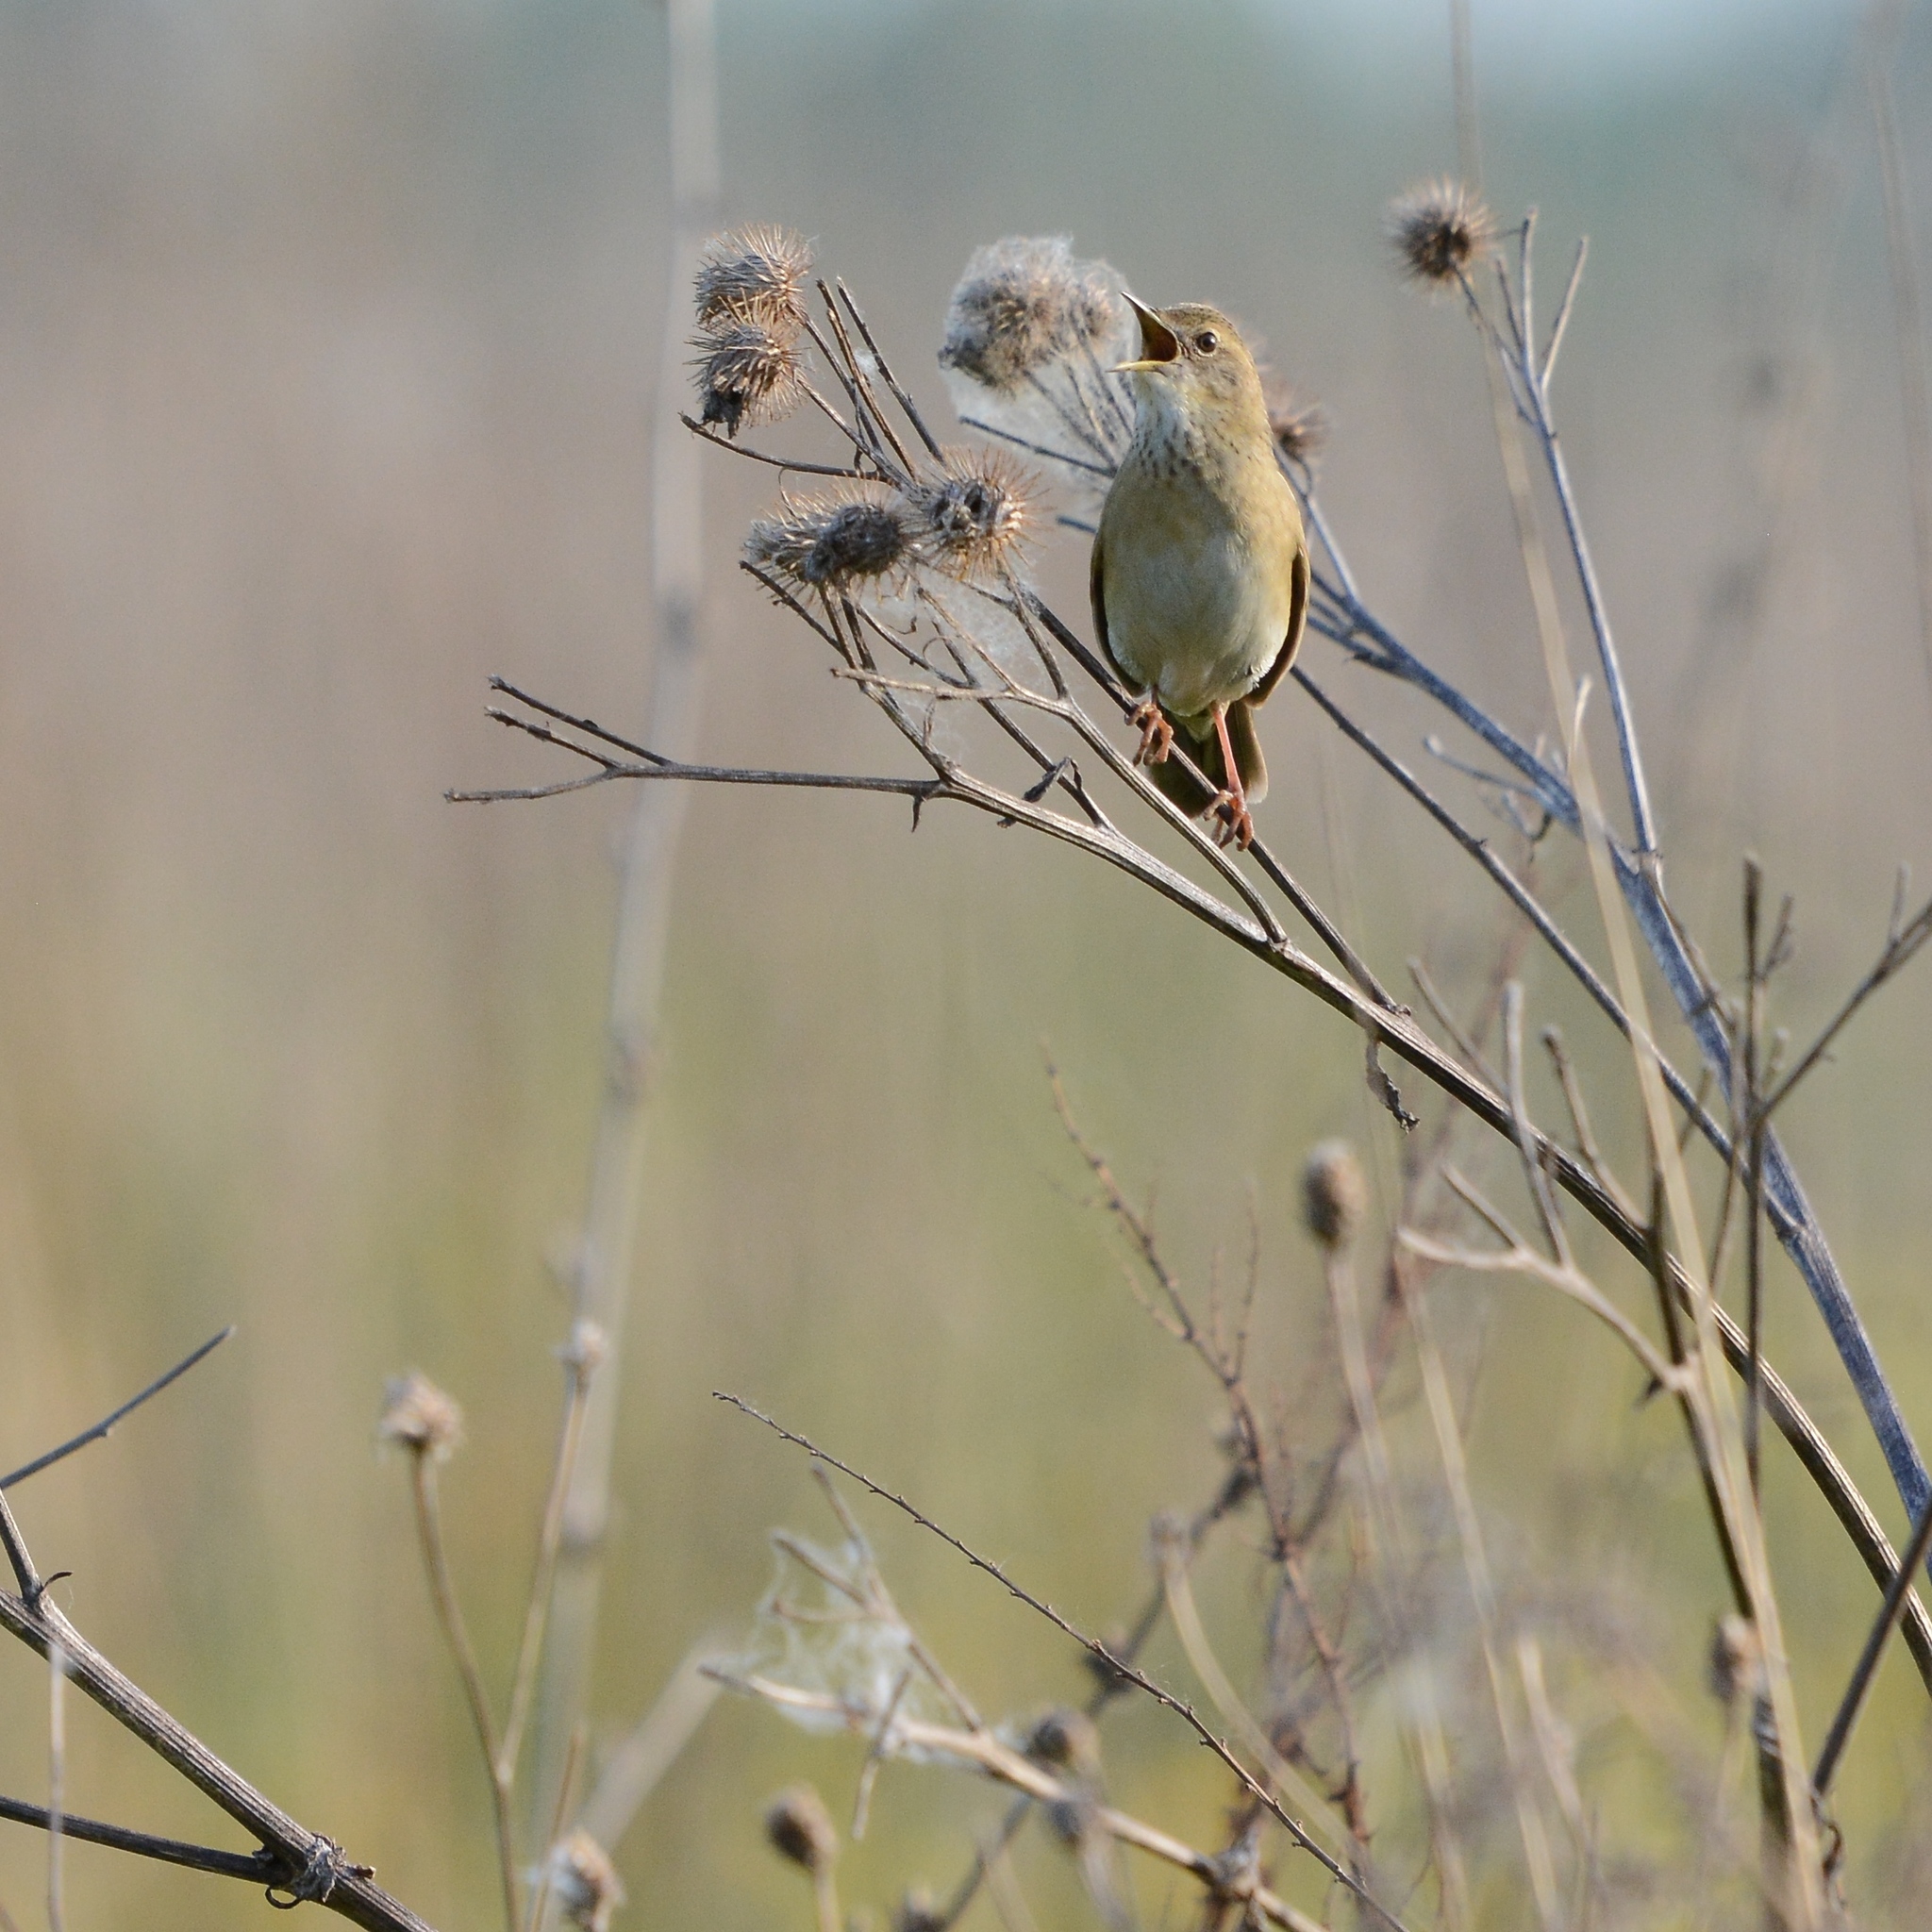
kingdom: Animalia
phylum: Chordata
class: Aves
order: Passeriformes
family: Locustellidae
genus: Locustella
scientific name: Locustella naevia
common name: Common grasshopper warbler
